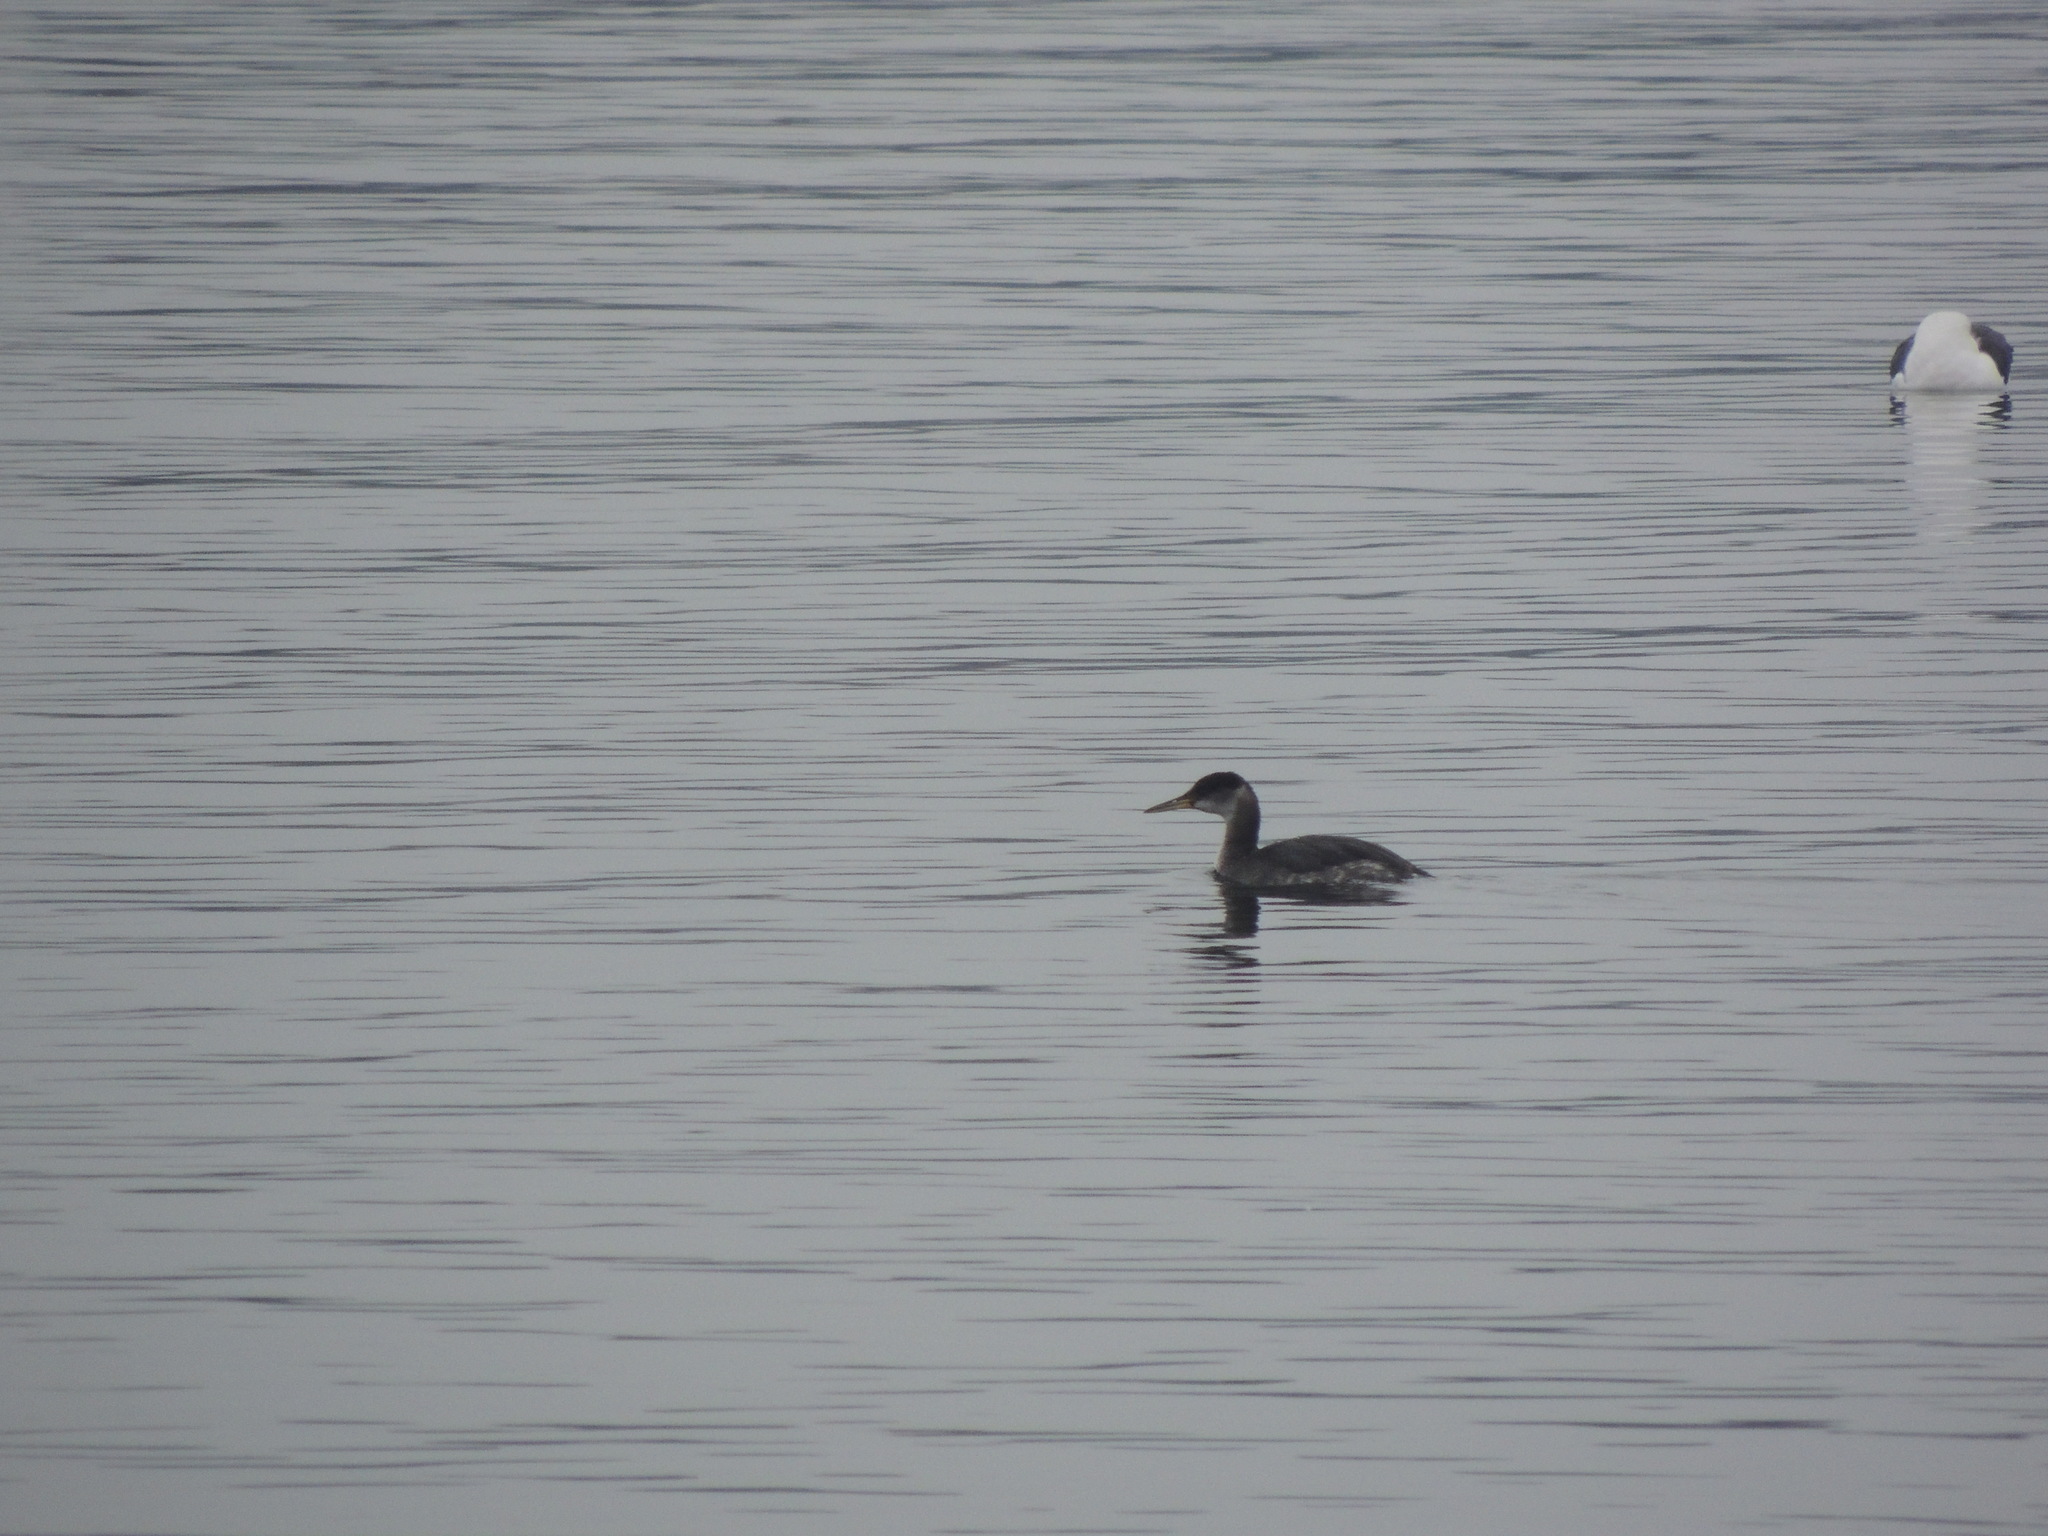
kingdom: Animalia
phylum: Chordata
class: Aves
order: Podicipediformes
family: Podicipedidae
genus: Podiceps
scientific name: Podiceps grisegena
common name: Red-necked grebe
